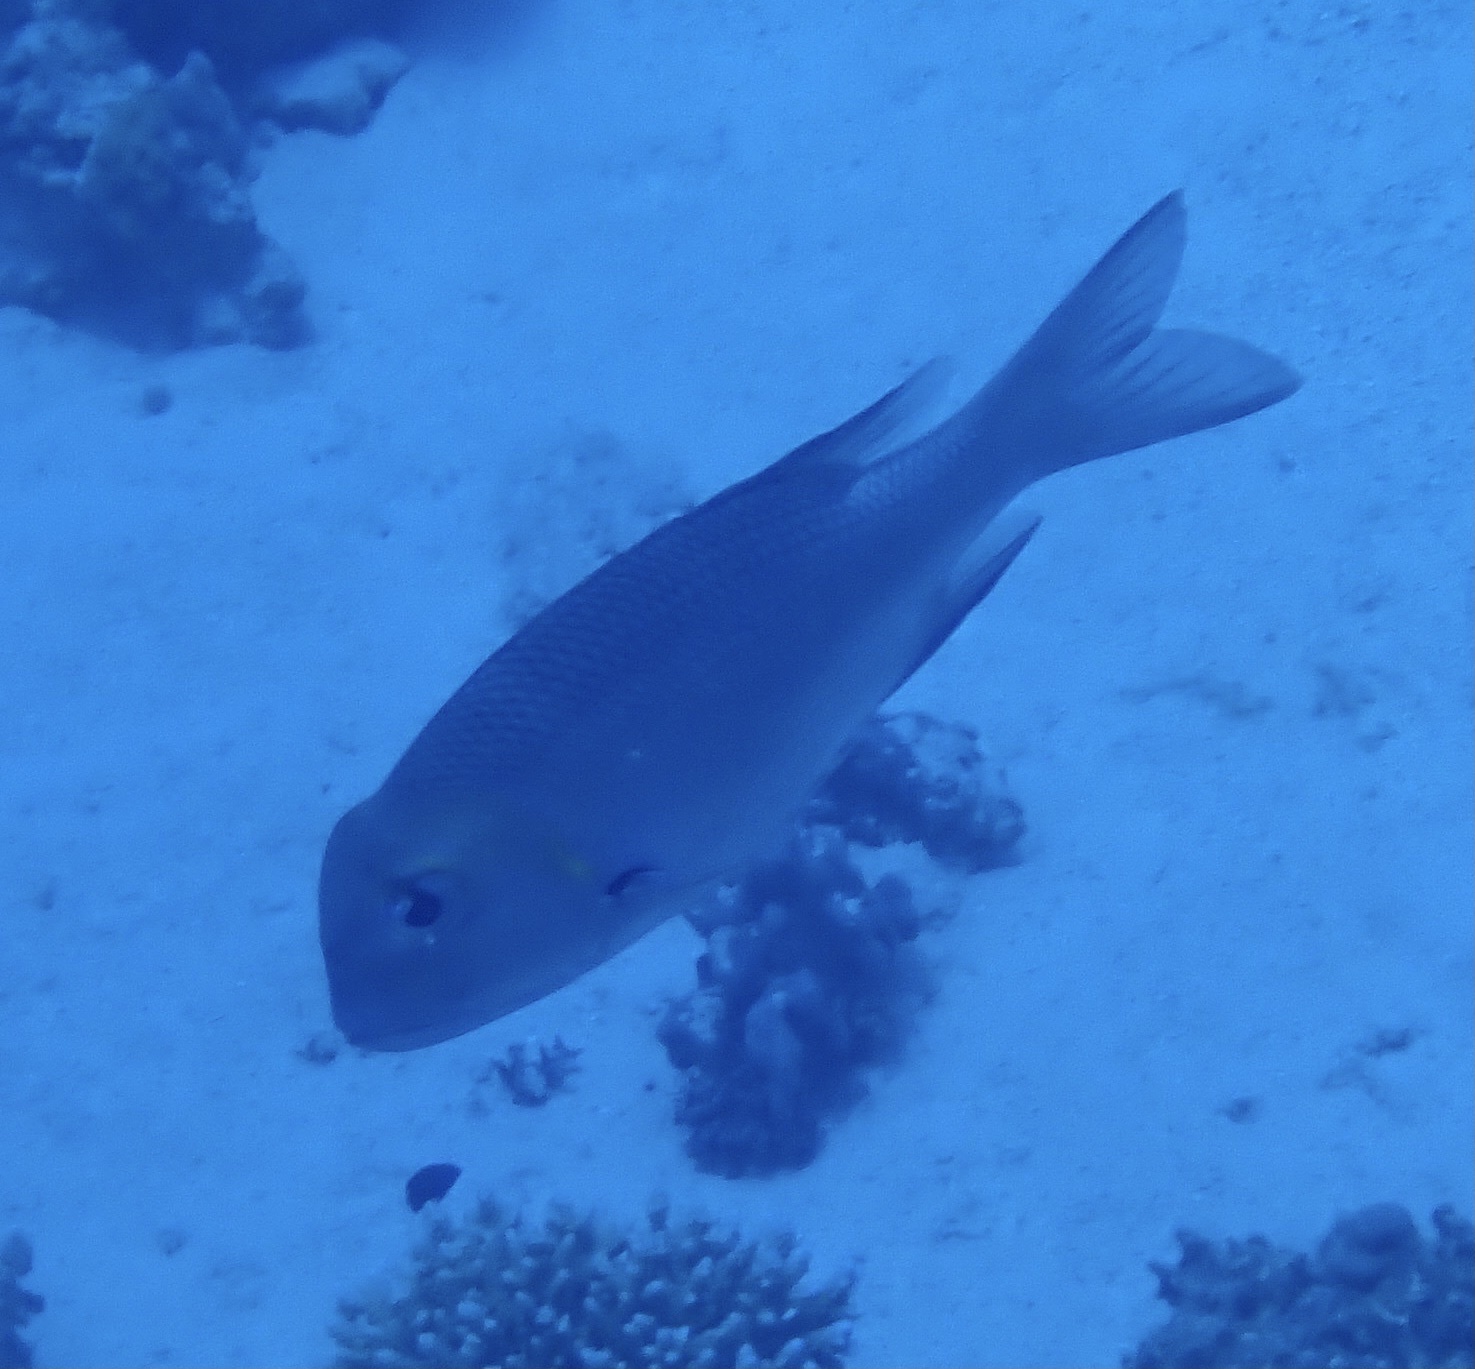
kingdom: Animalia
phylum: Chordata
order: Perciformes
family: Lethrinidae
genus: Monotaxis
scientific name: Monotaxis grandoculis
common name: Bigeye emperor
